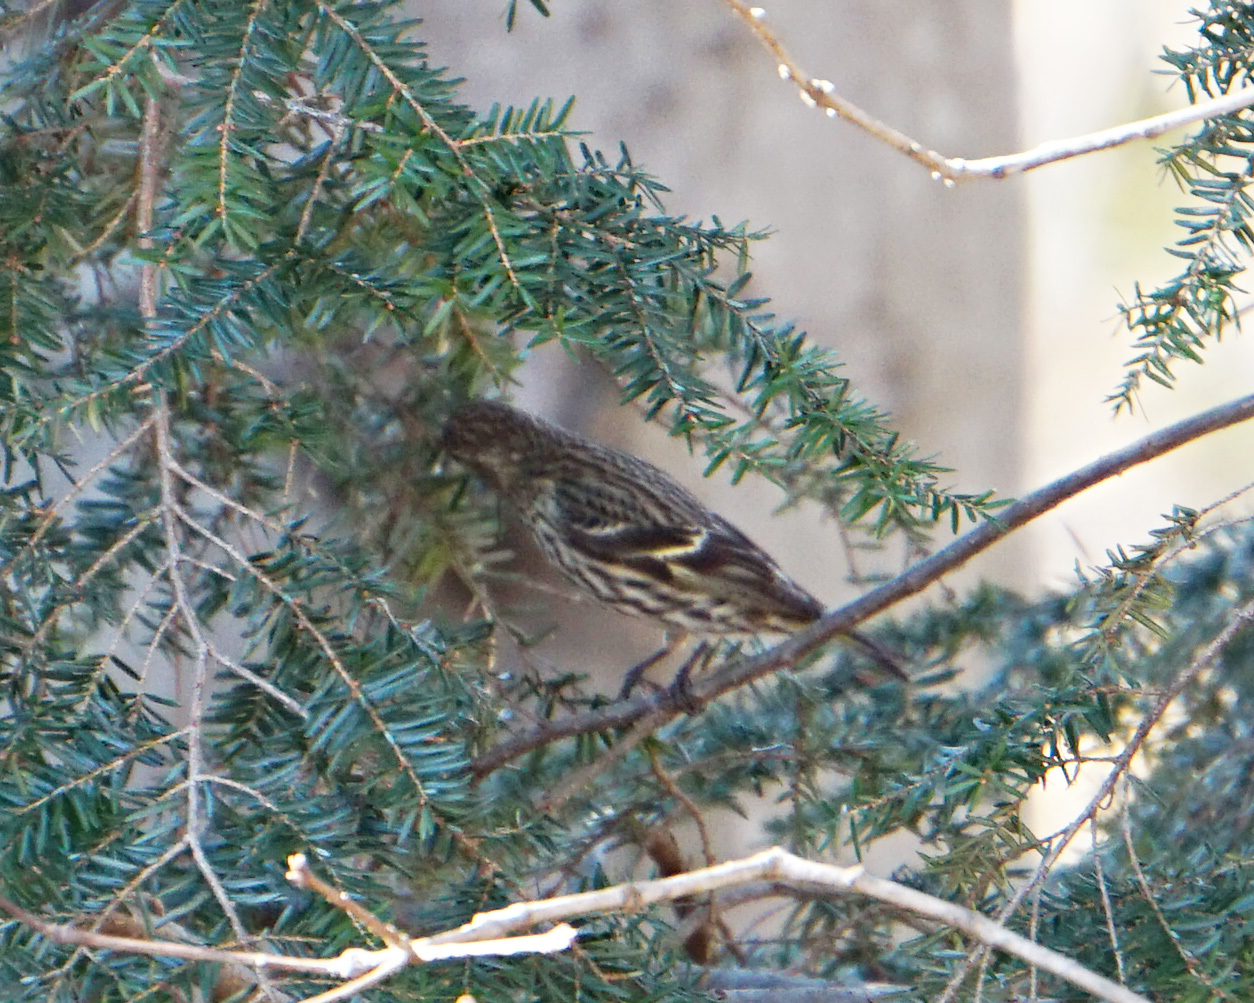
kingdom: Animalia
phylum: Chordata
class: Aves
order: Passeriformes
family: Fringillidae
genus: Spinus
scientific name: Spinus pinus
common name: Pine siskin
